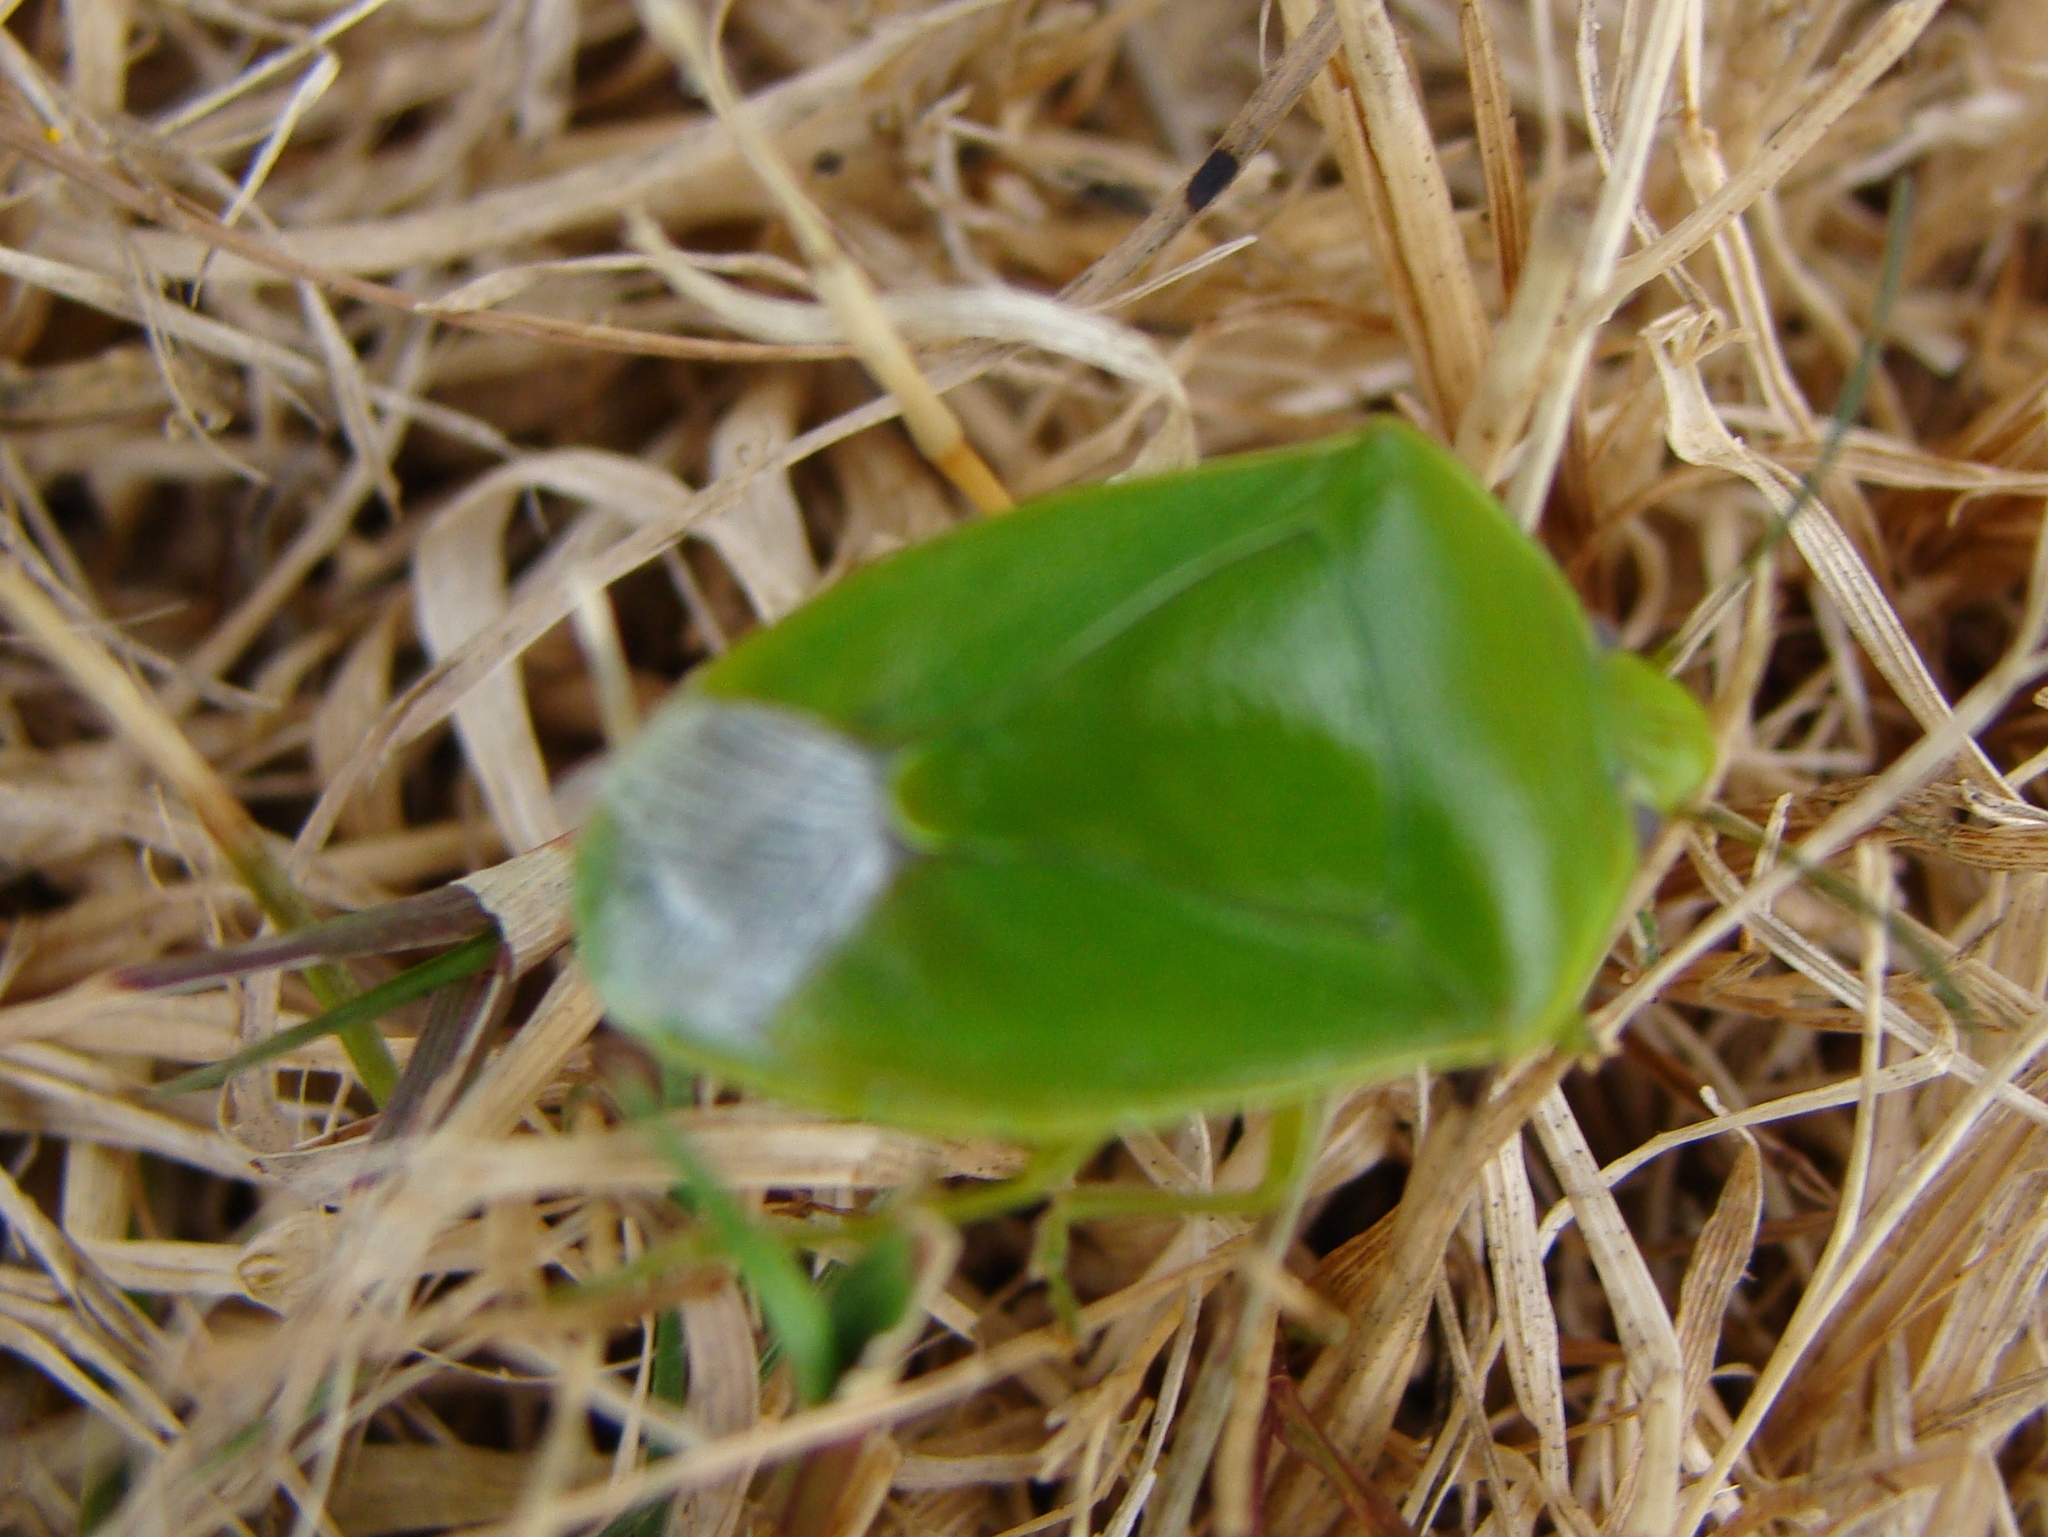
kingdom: Animalia
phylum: Arthropoda
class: Insecta
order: Hemiptera
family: Pentatomidae
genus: Glaucias
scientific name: Glaucias amyota
